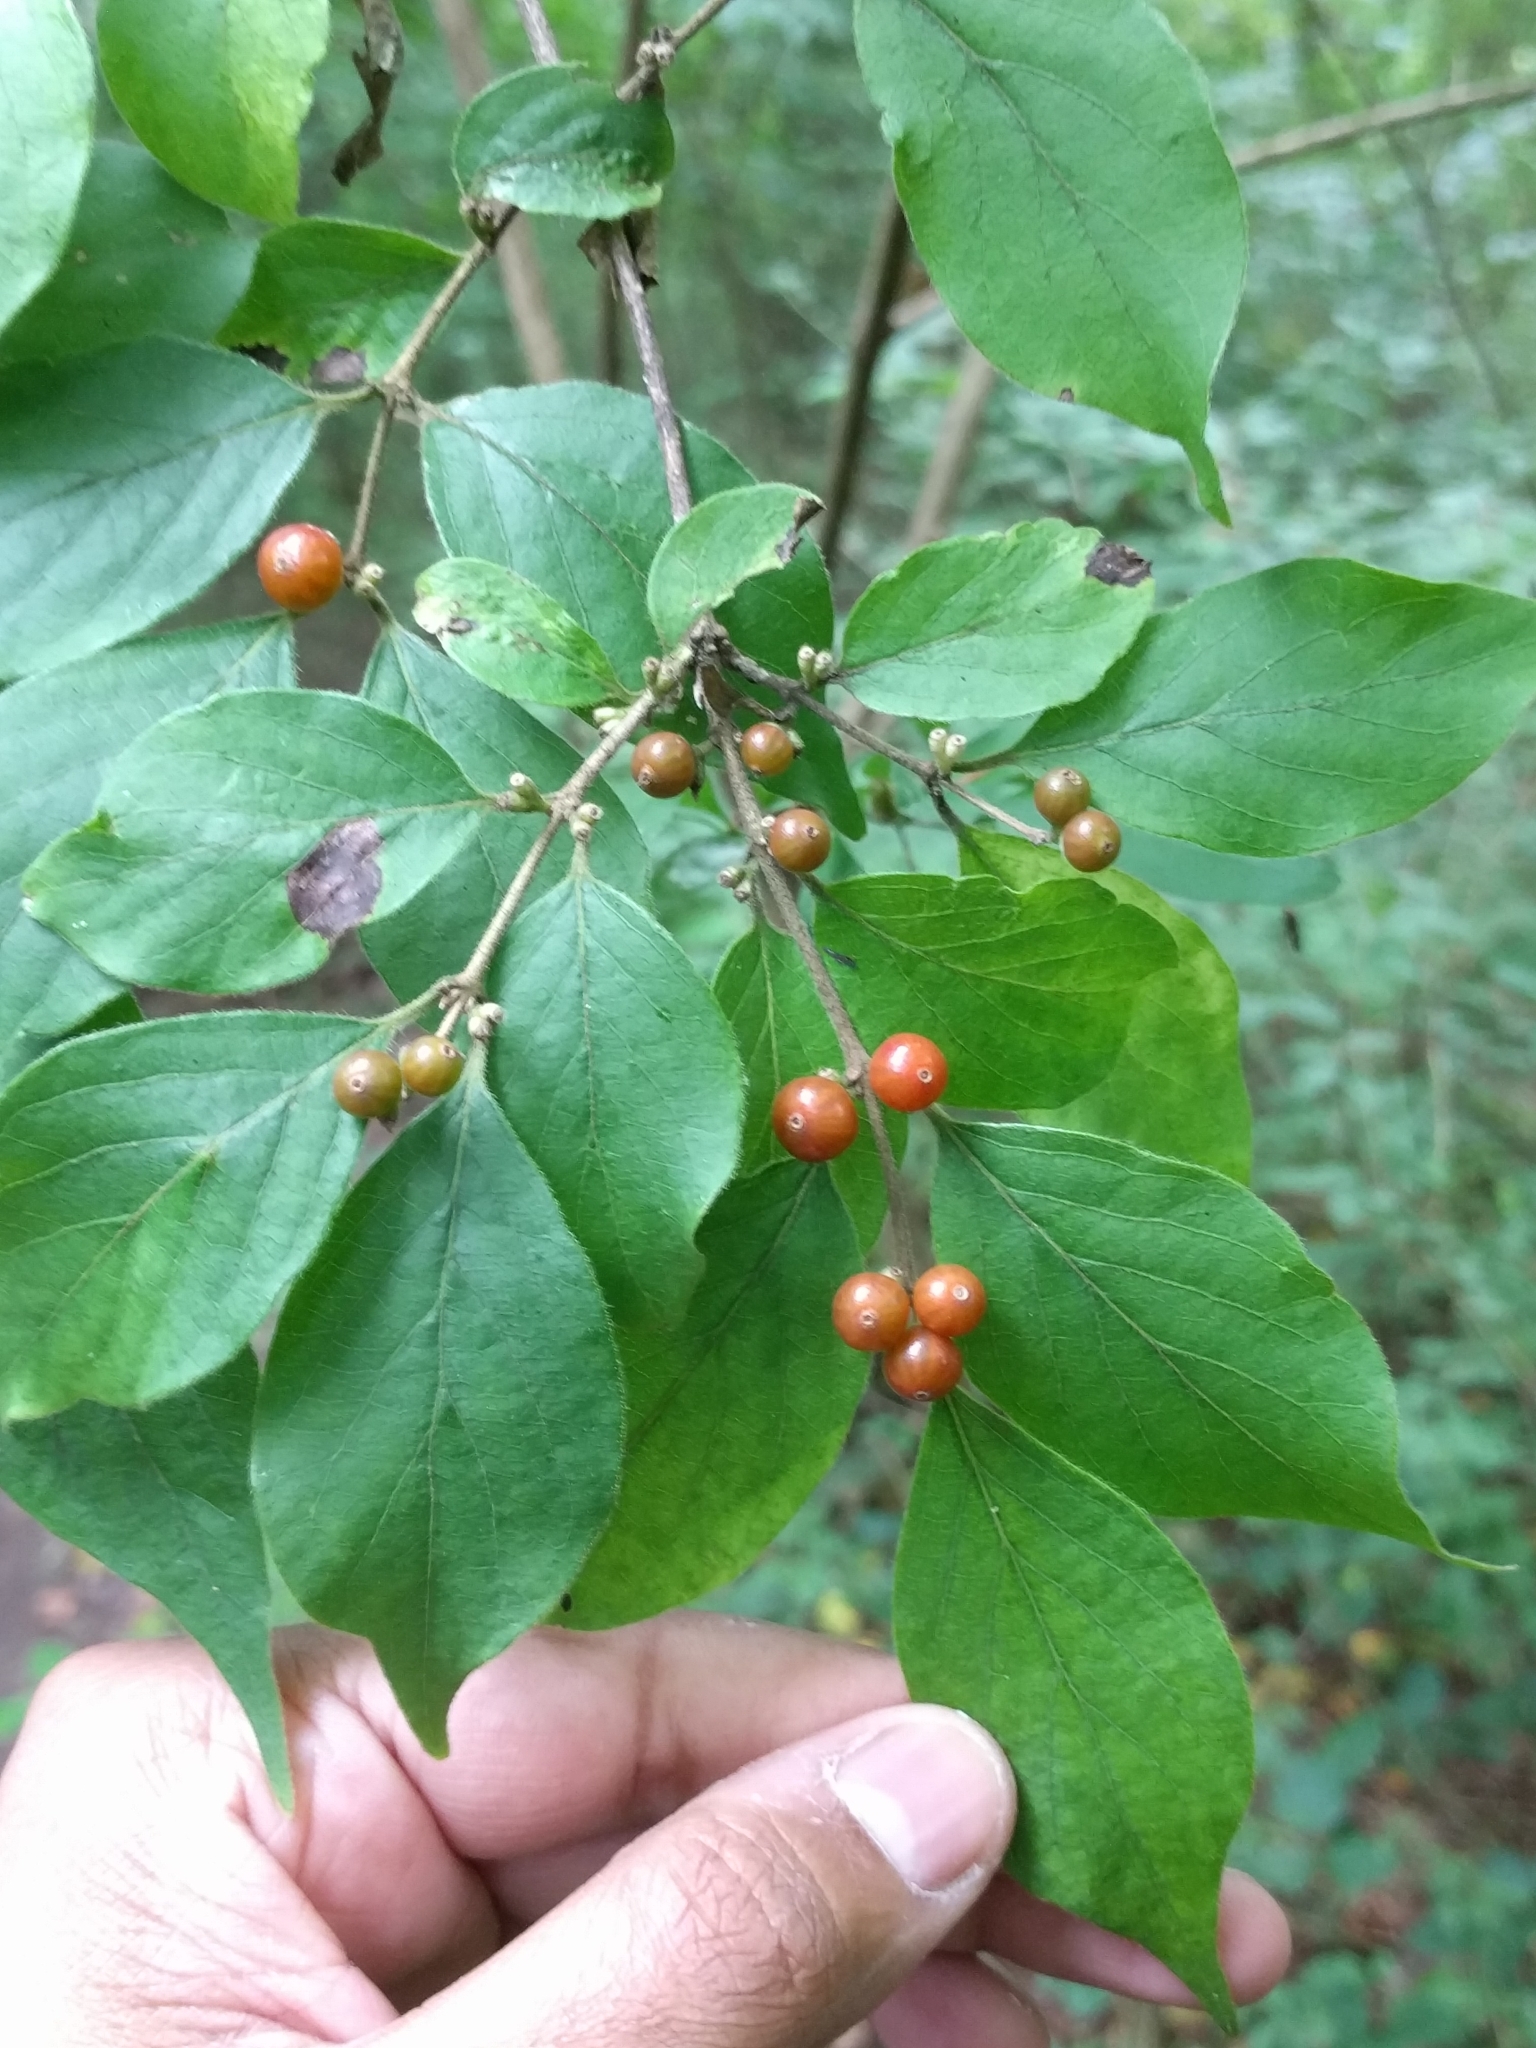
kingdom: Plantae
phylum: Tracheophyta
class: Magnoliopsida
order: Dipsacales
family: Caprifoliaceae
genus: Lonicera
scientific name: Lonicera maackii
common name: Amur honeysuckle
